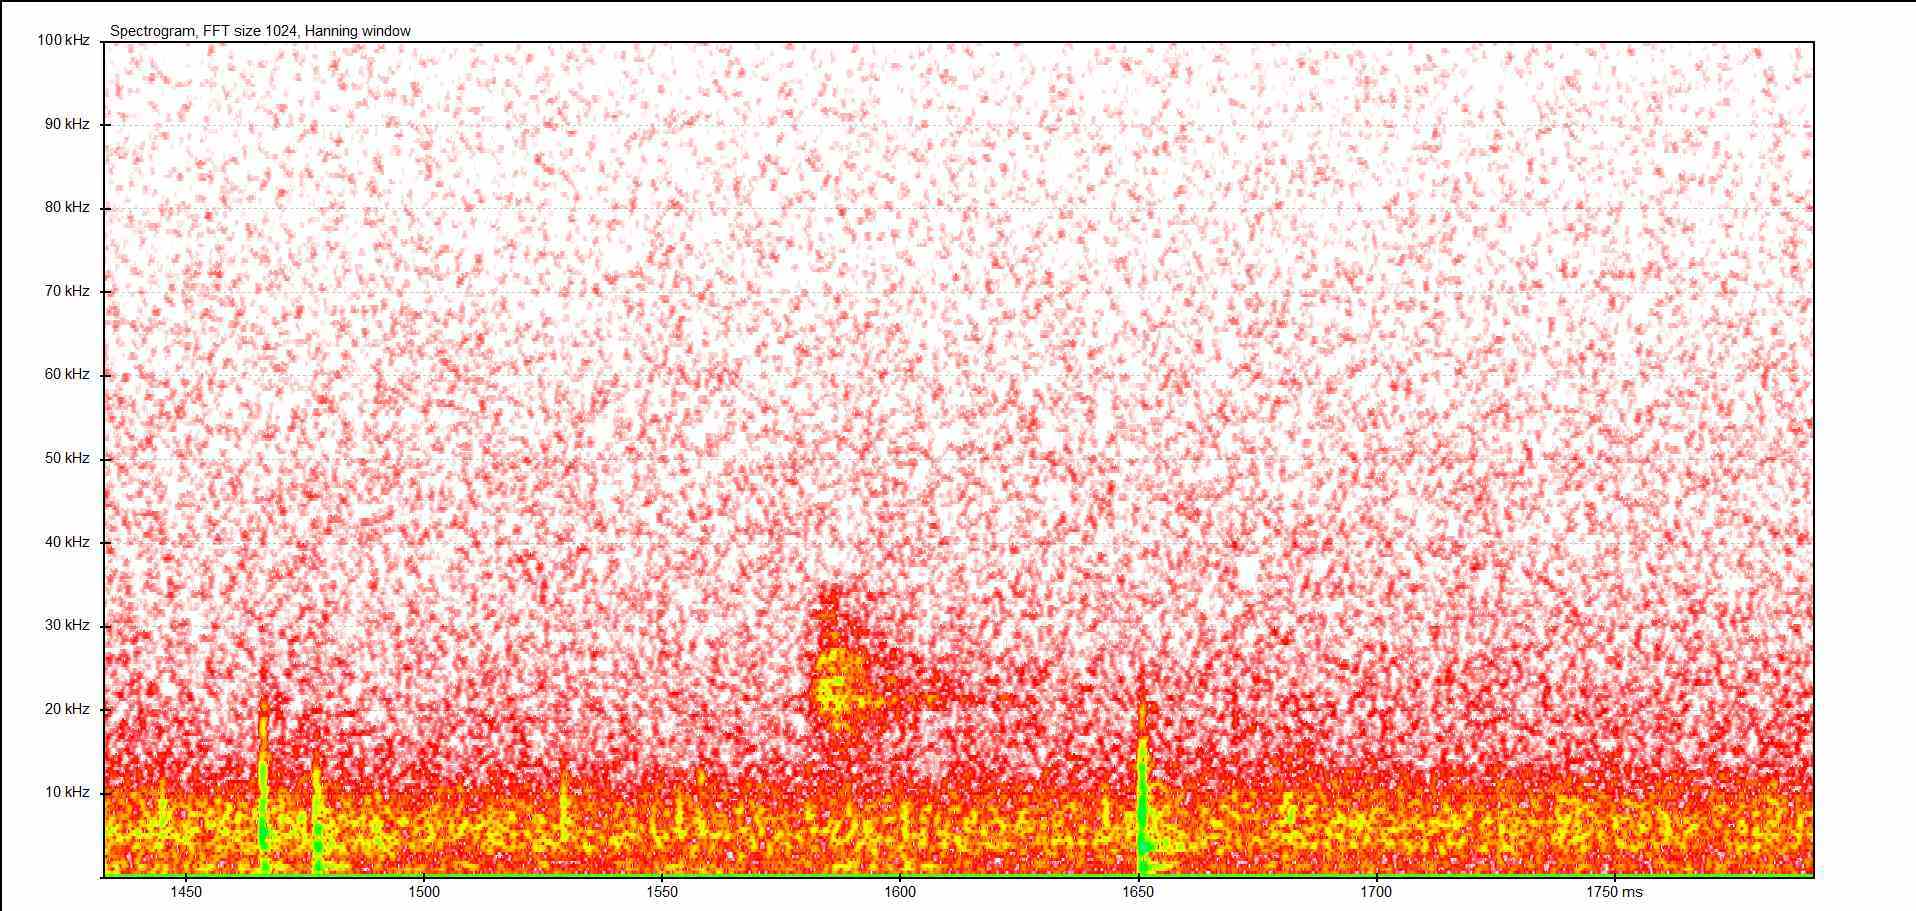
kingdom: Animalia
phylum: Arthropoda
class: Insecta
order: Orthoptera
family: Tettigoniidae
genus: Barbitistes
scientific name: Barbitistes serricauda
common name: Saw-tailed bush-cricket
